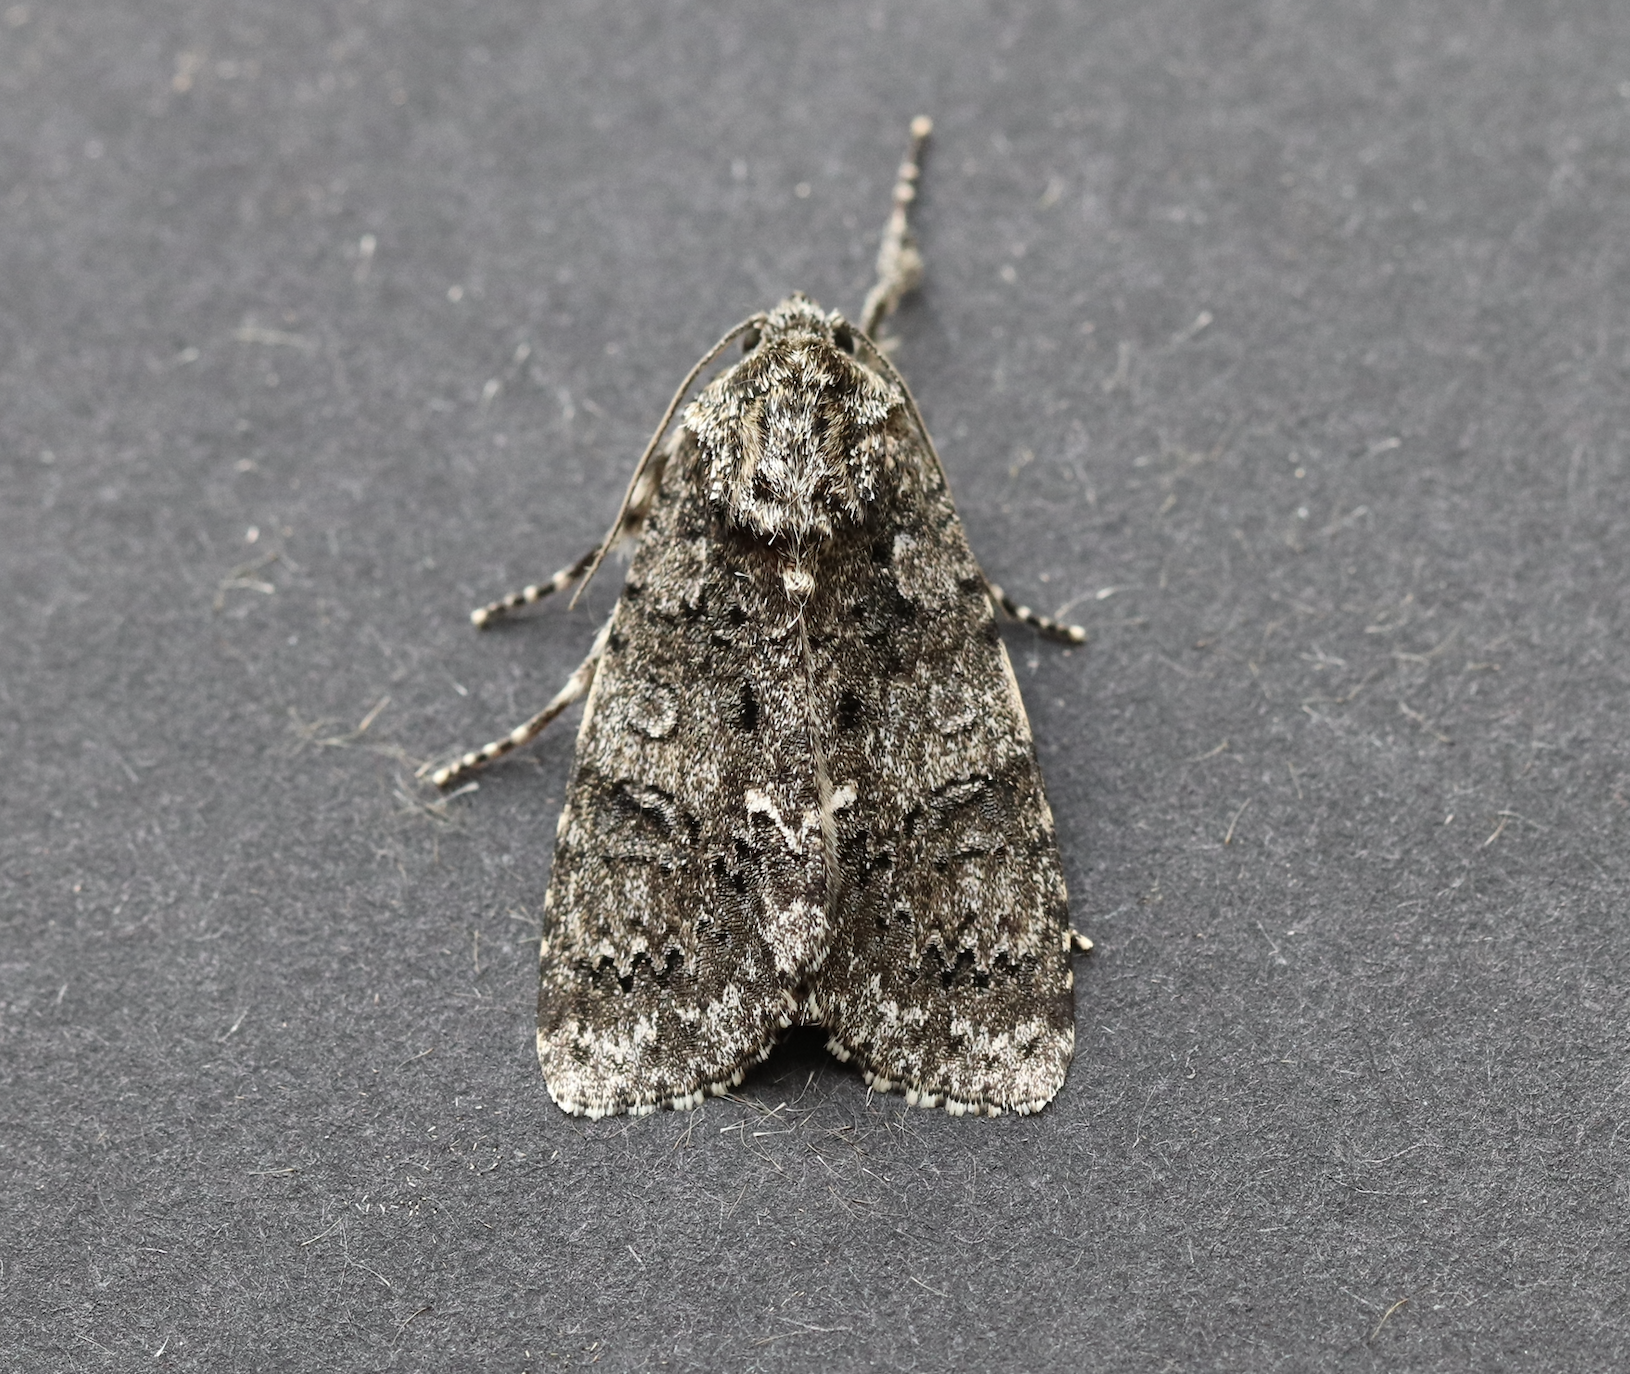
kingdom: Animalia
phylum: Arthropoda
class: Insecta
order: Lepidoptera
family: Noctuidae
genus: Acronicta
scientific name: Acronicta rumicis
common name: Knot grass
